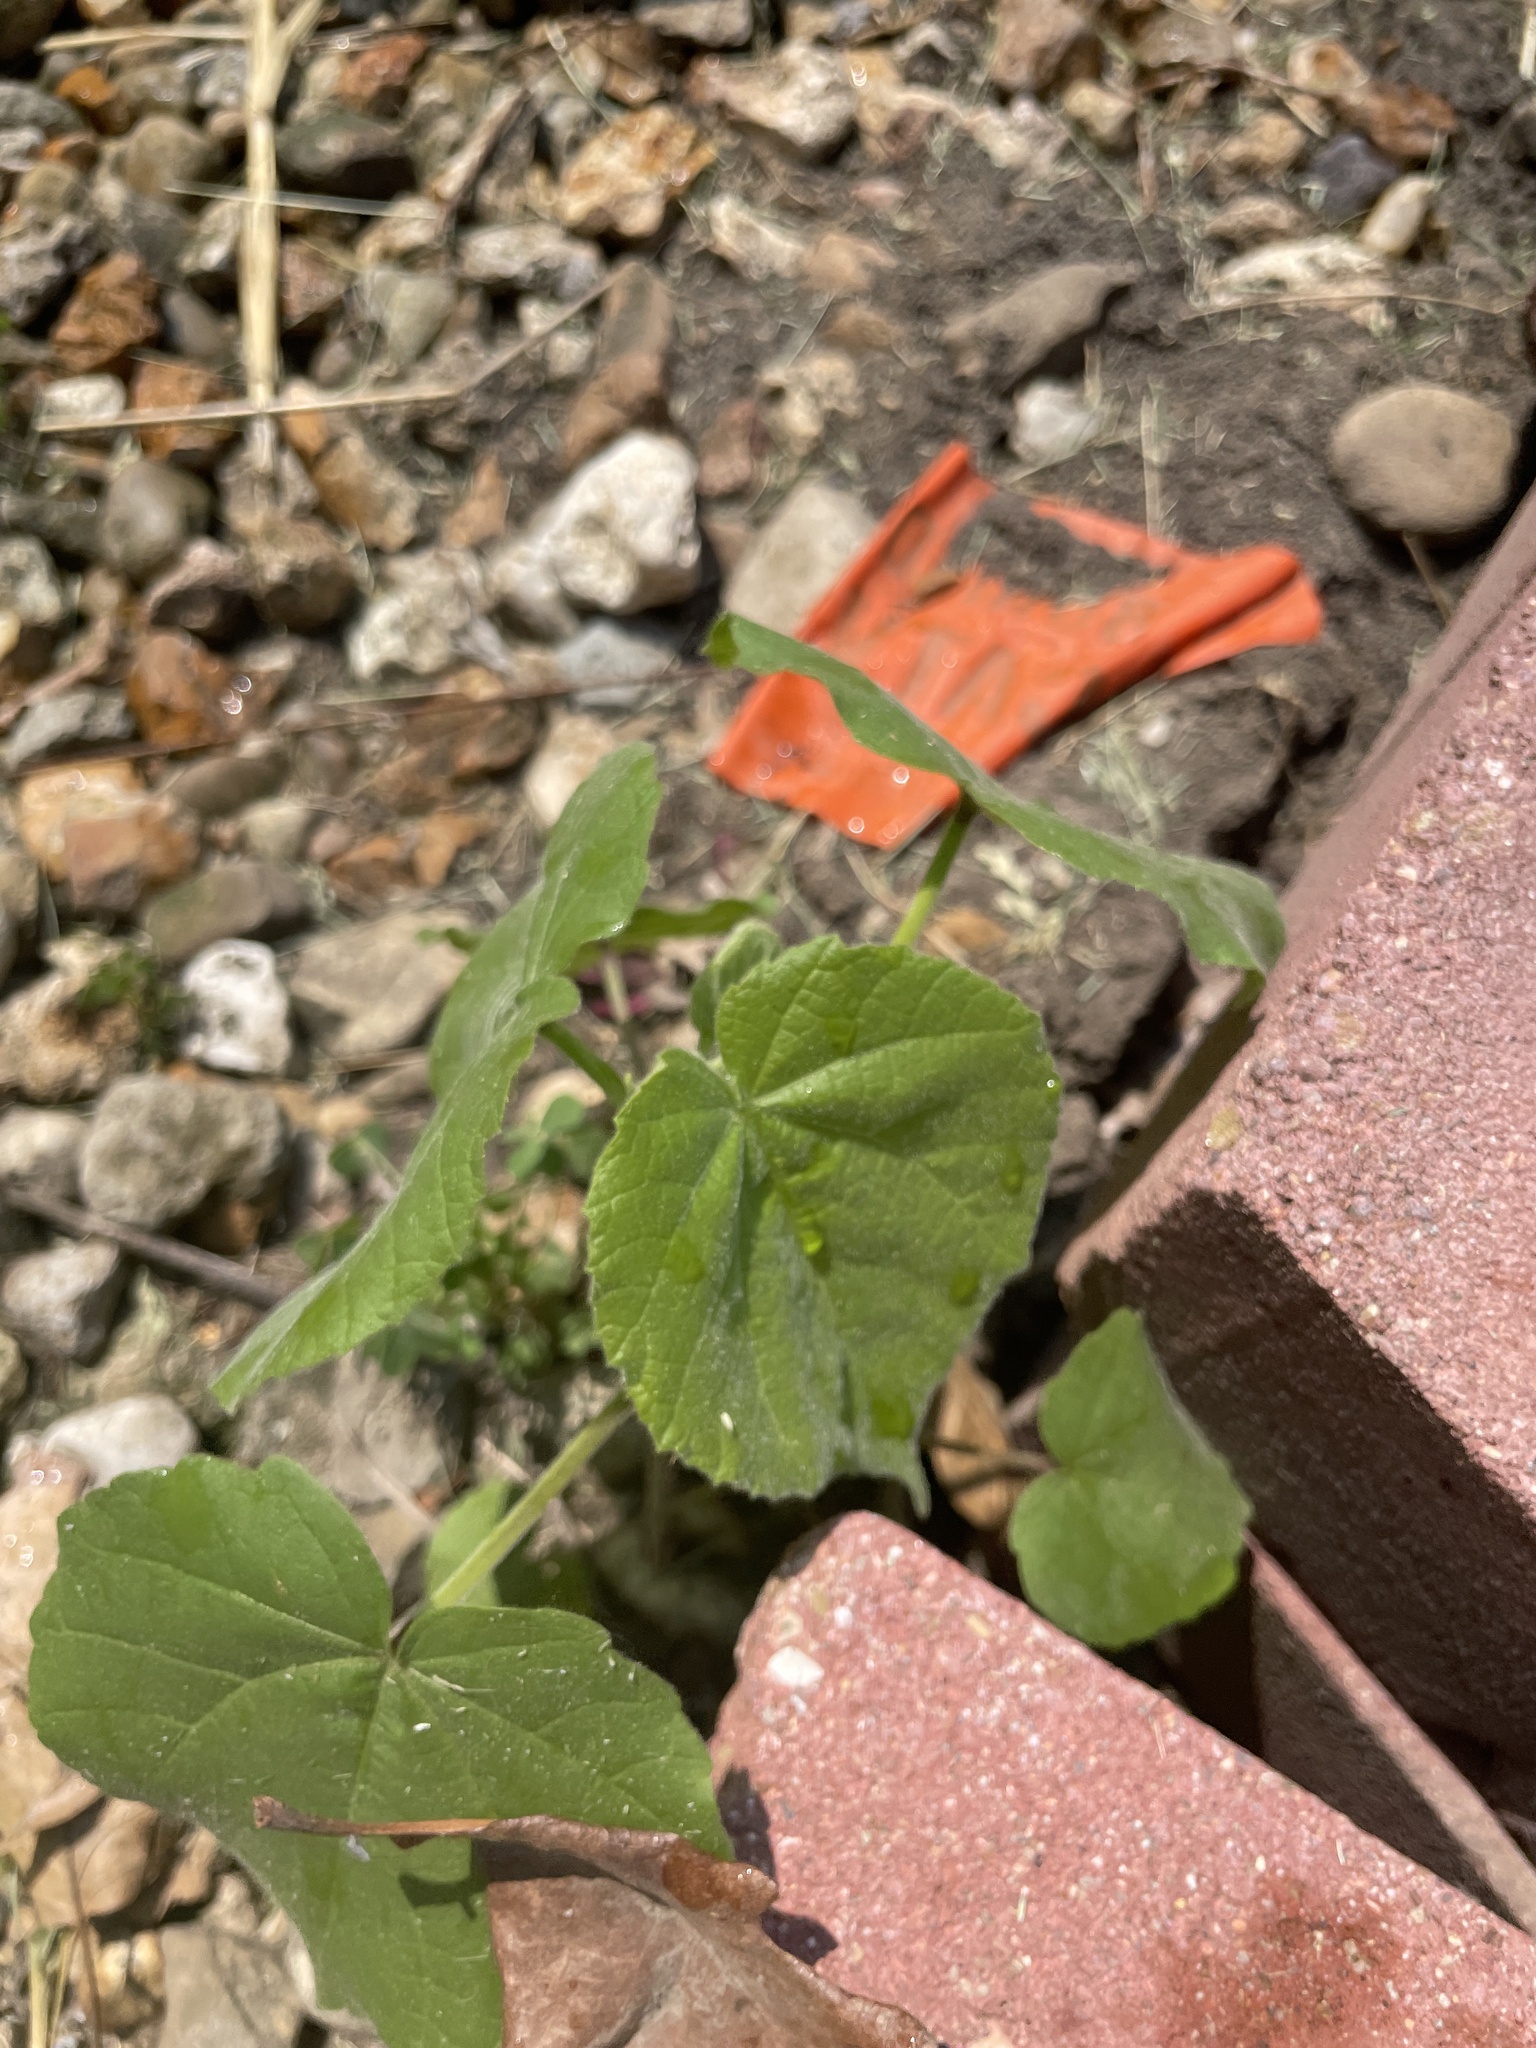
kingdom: Plantae
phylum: Tracheophyta
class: Magnoliopsida
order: Malvales
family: Malvaceae
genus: Abutilon
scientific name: Abutilon theophrasti
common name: Velvetleaf
